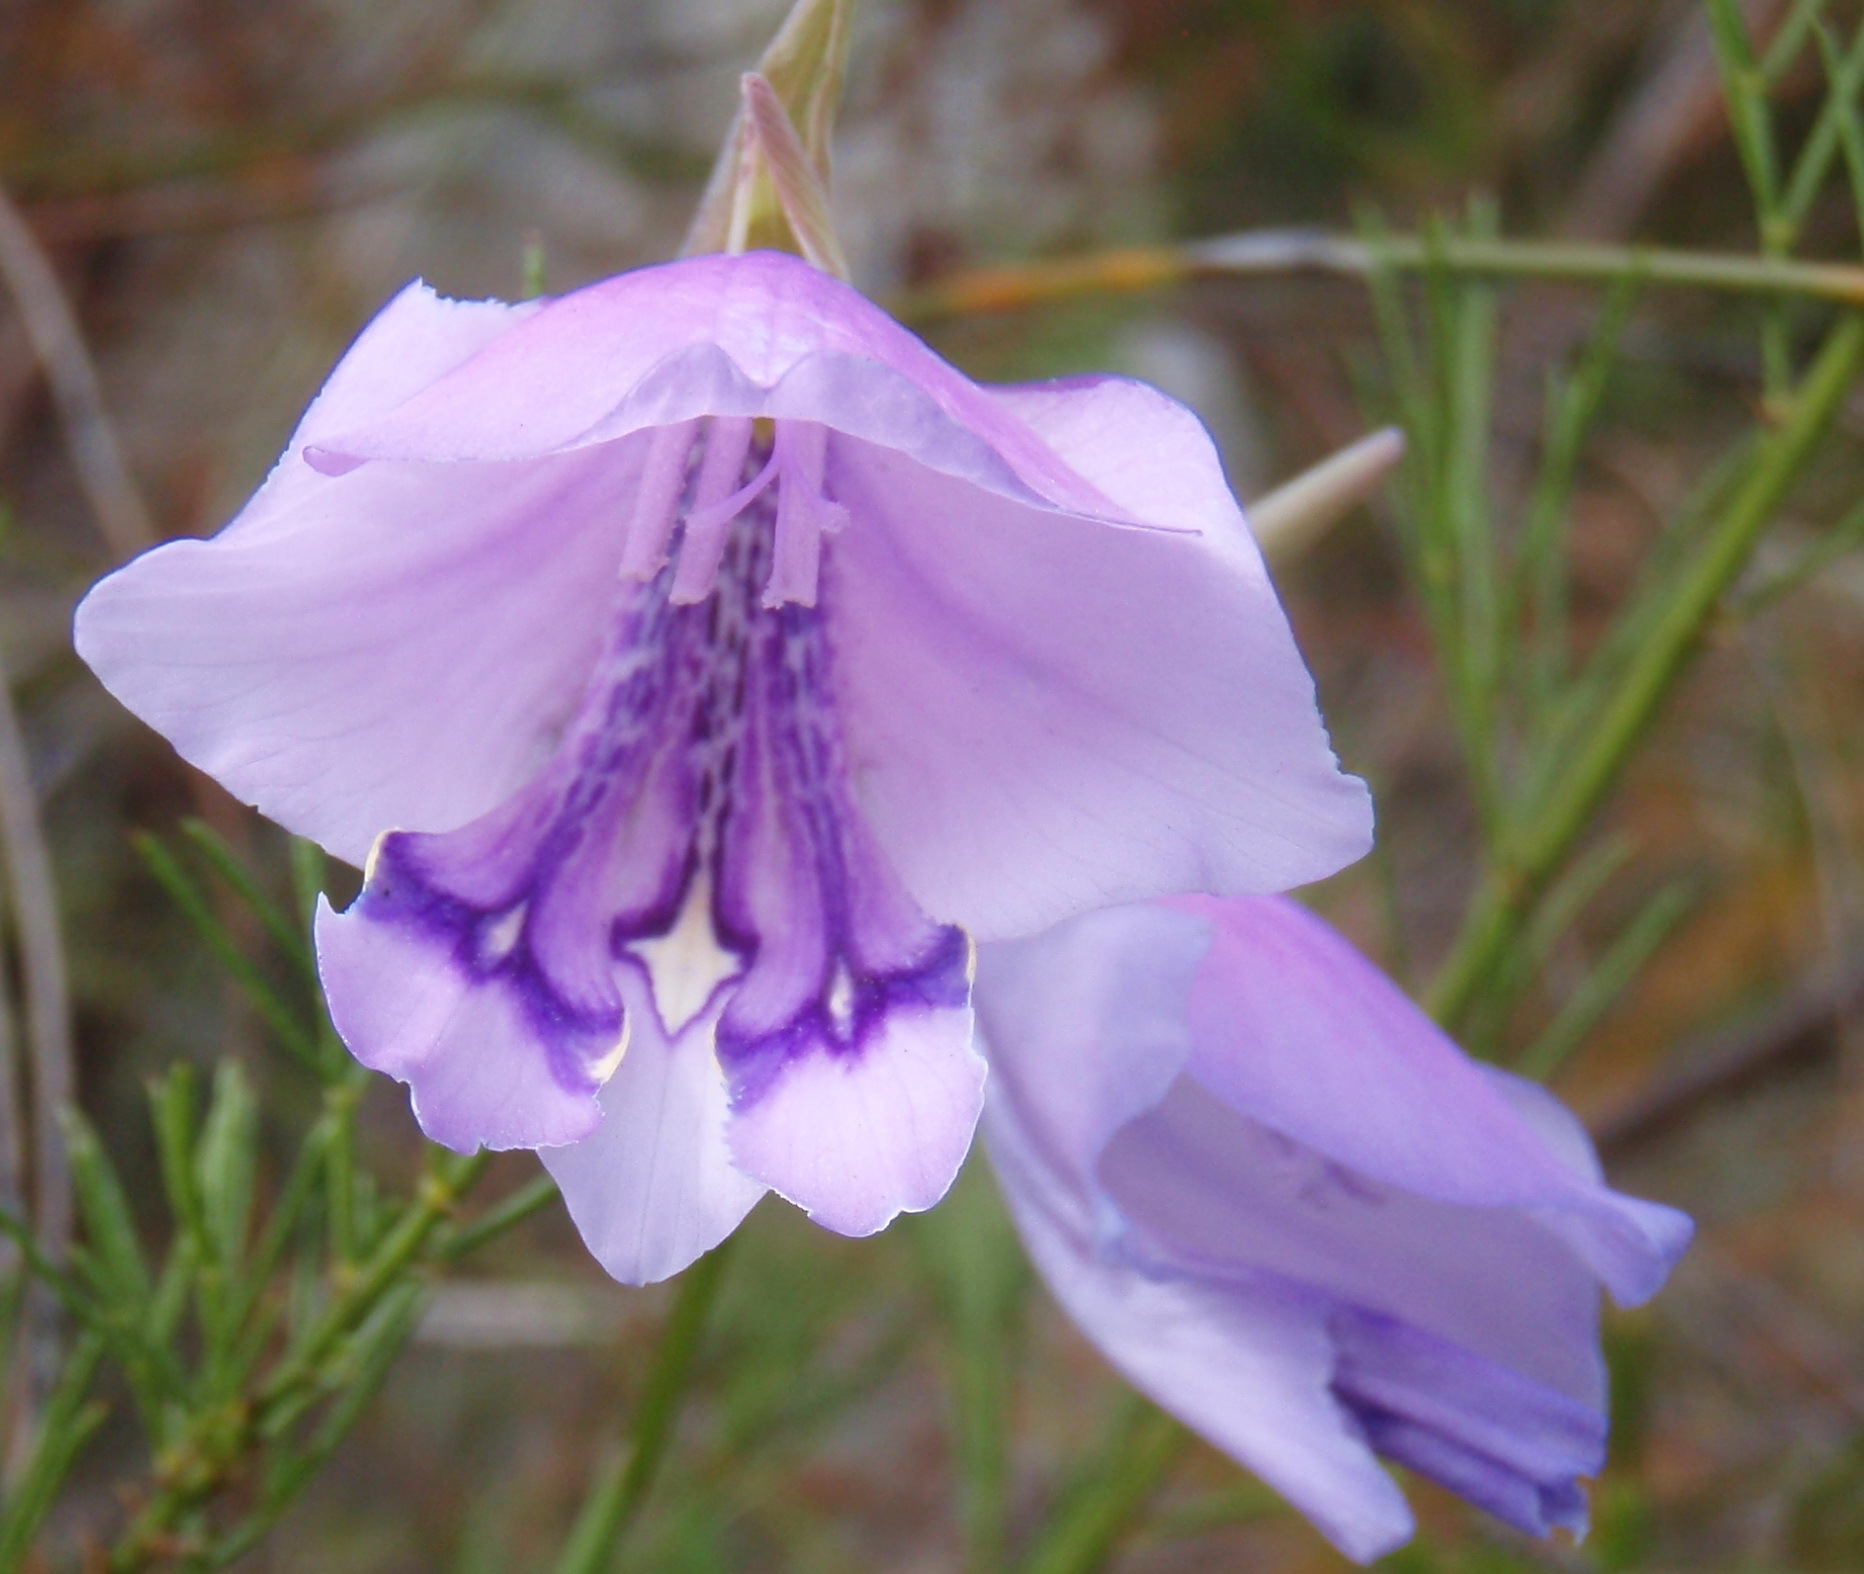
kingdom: Plantae
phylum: Tracheophyta
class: Liliopsida
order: Asparagales
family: Iridaceae
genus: Gladiolus
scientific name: Gladiolus patersoniae
